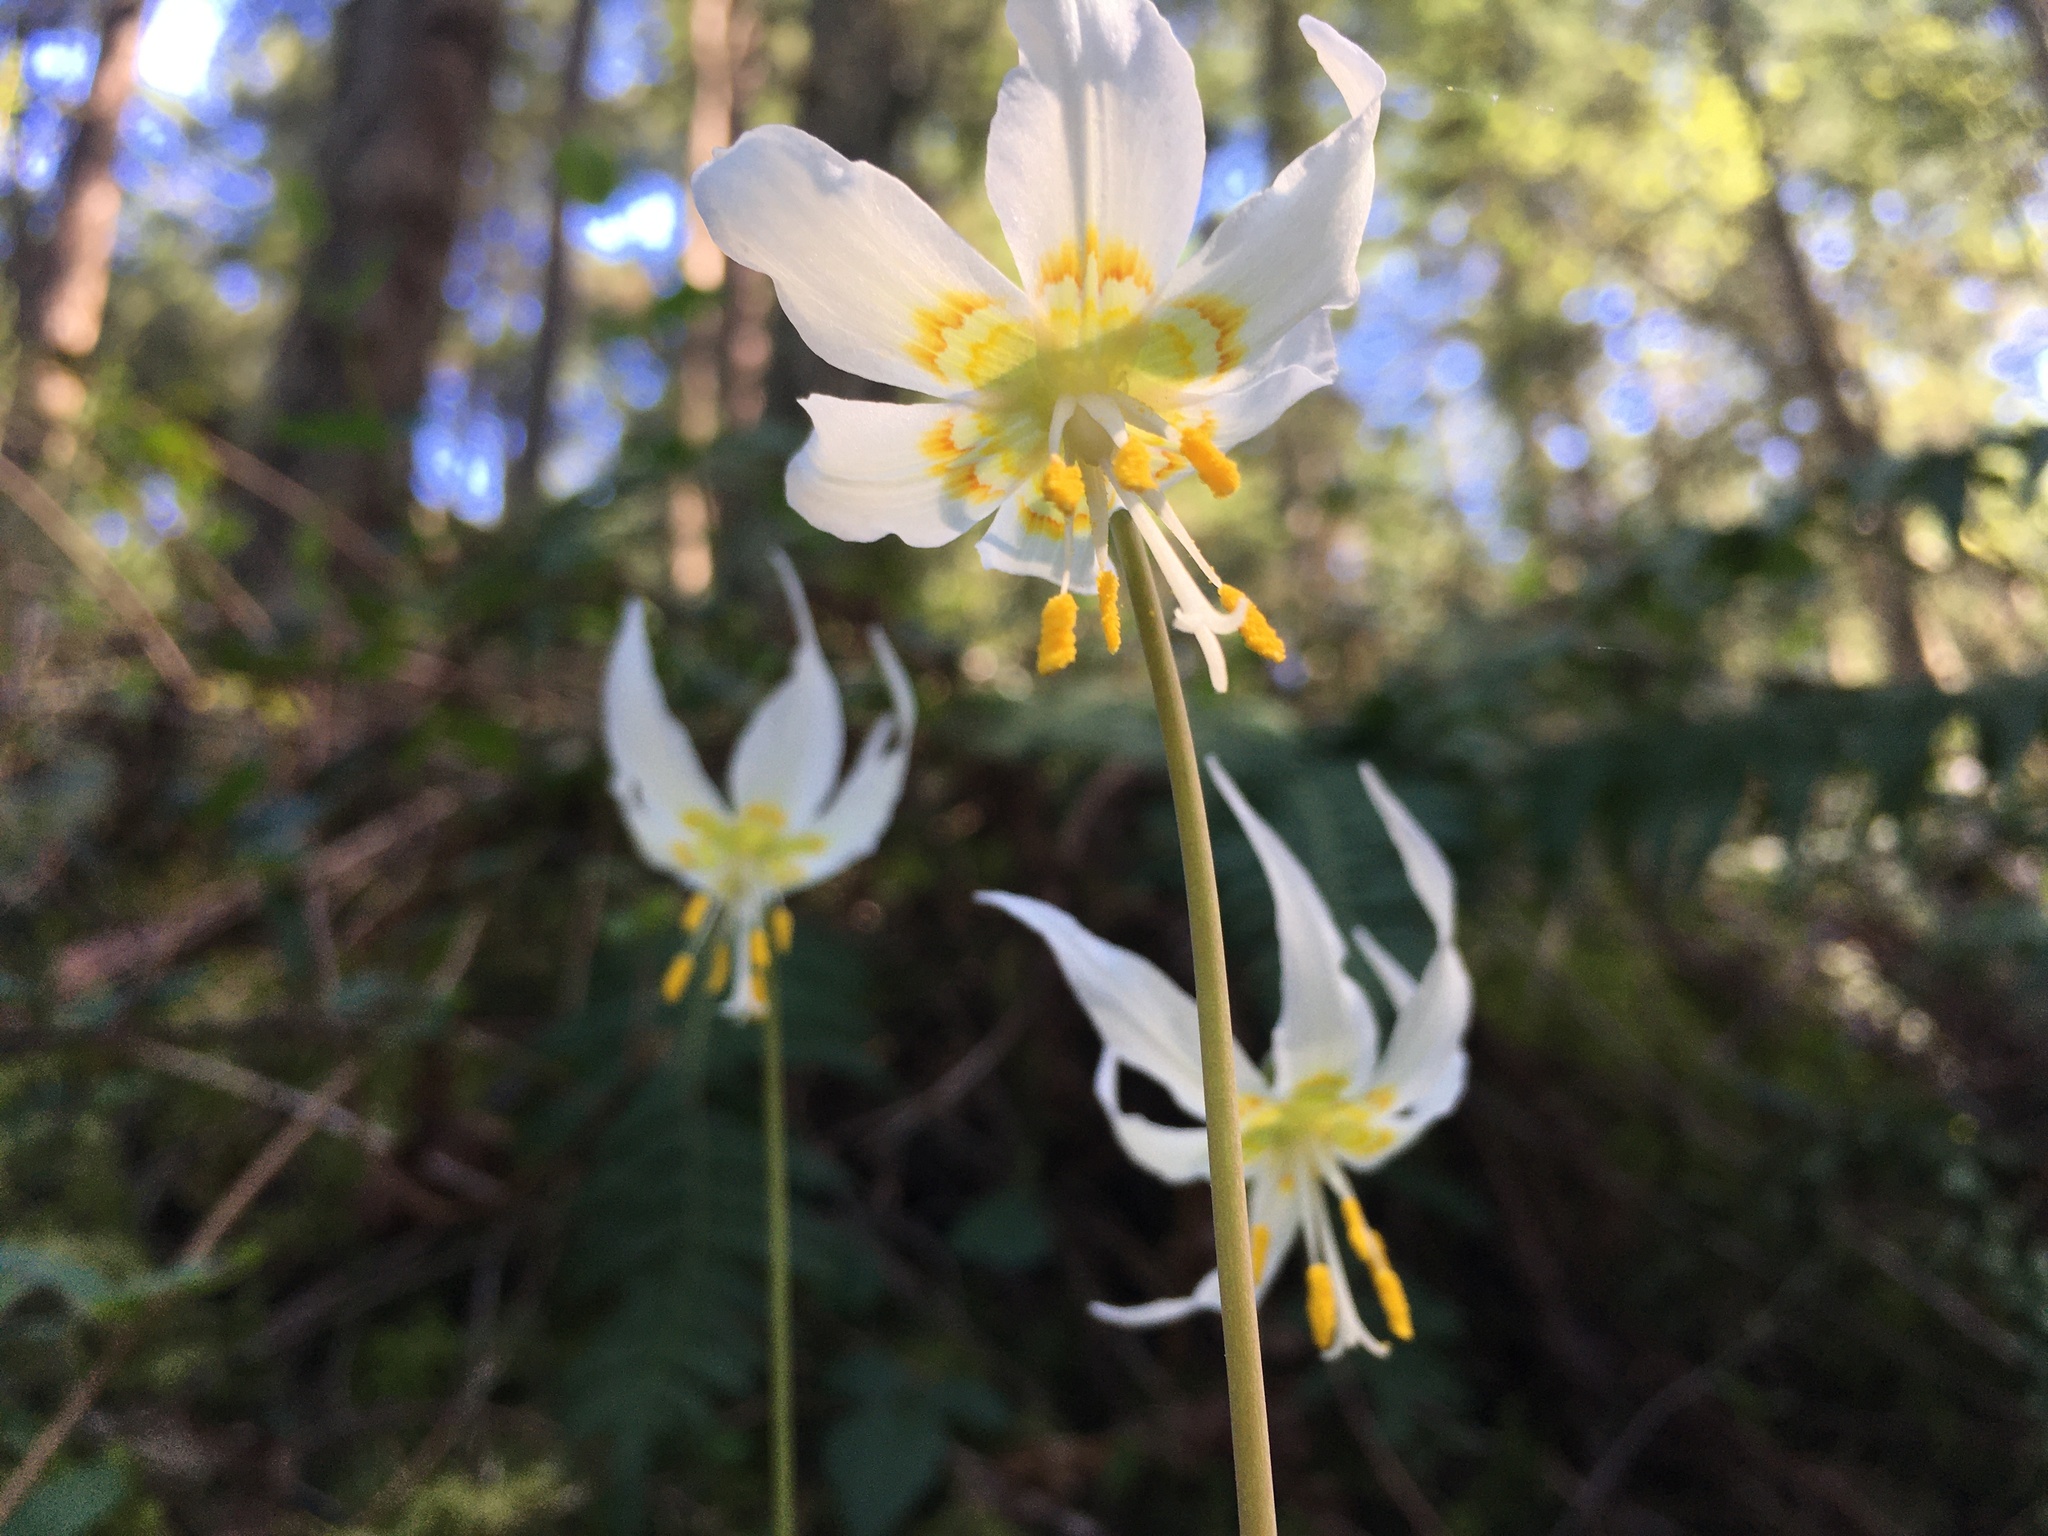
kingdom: Plantae
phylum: Tracheophyta
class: Liliopsida
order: Liliales
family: Liliaceae
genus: Erythronium
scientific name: Erythronium oregonum
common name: Giant adder's-tongue
